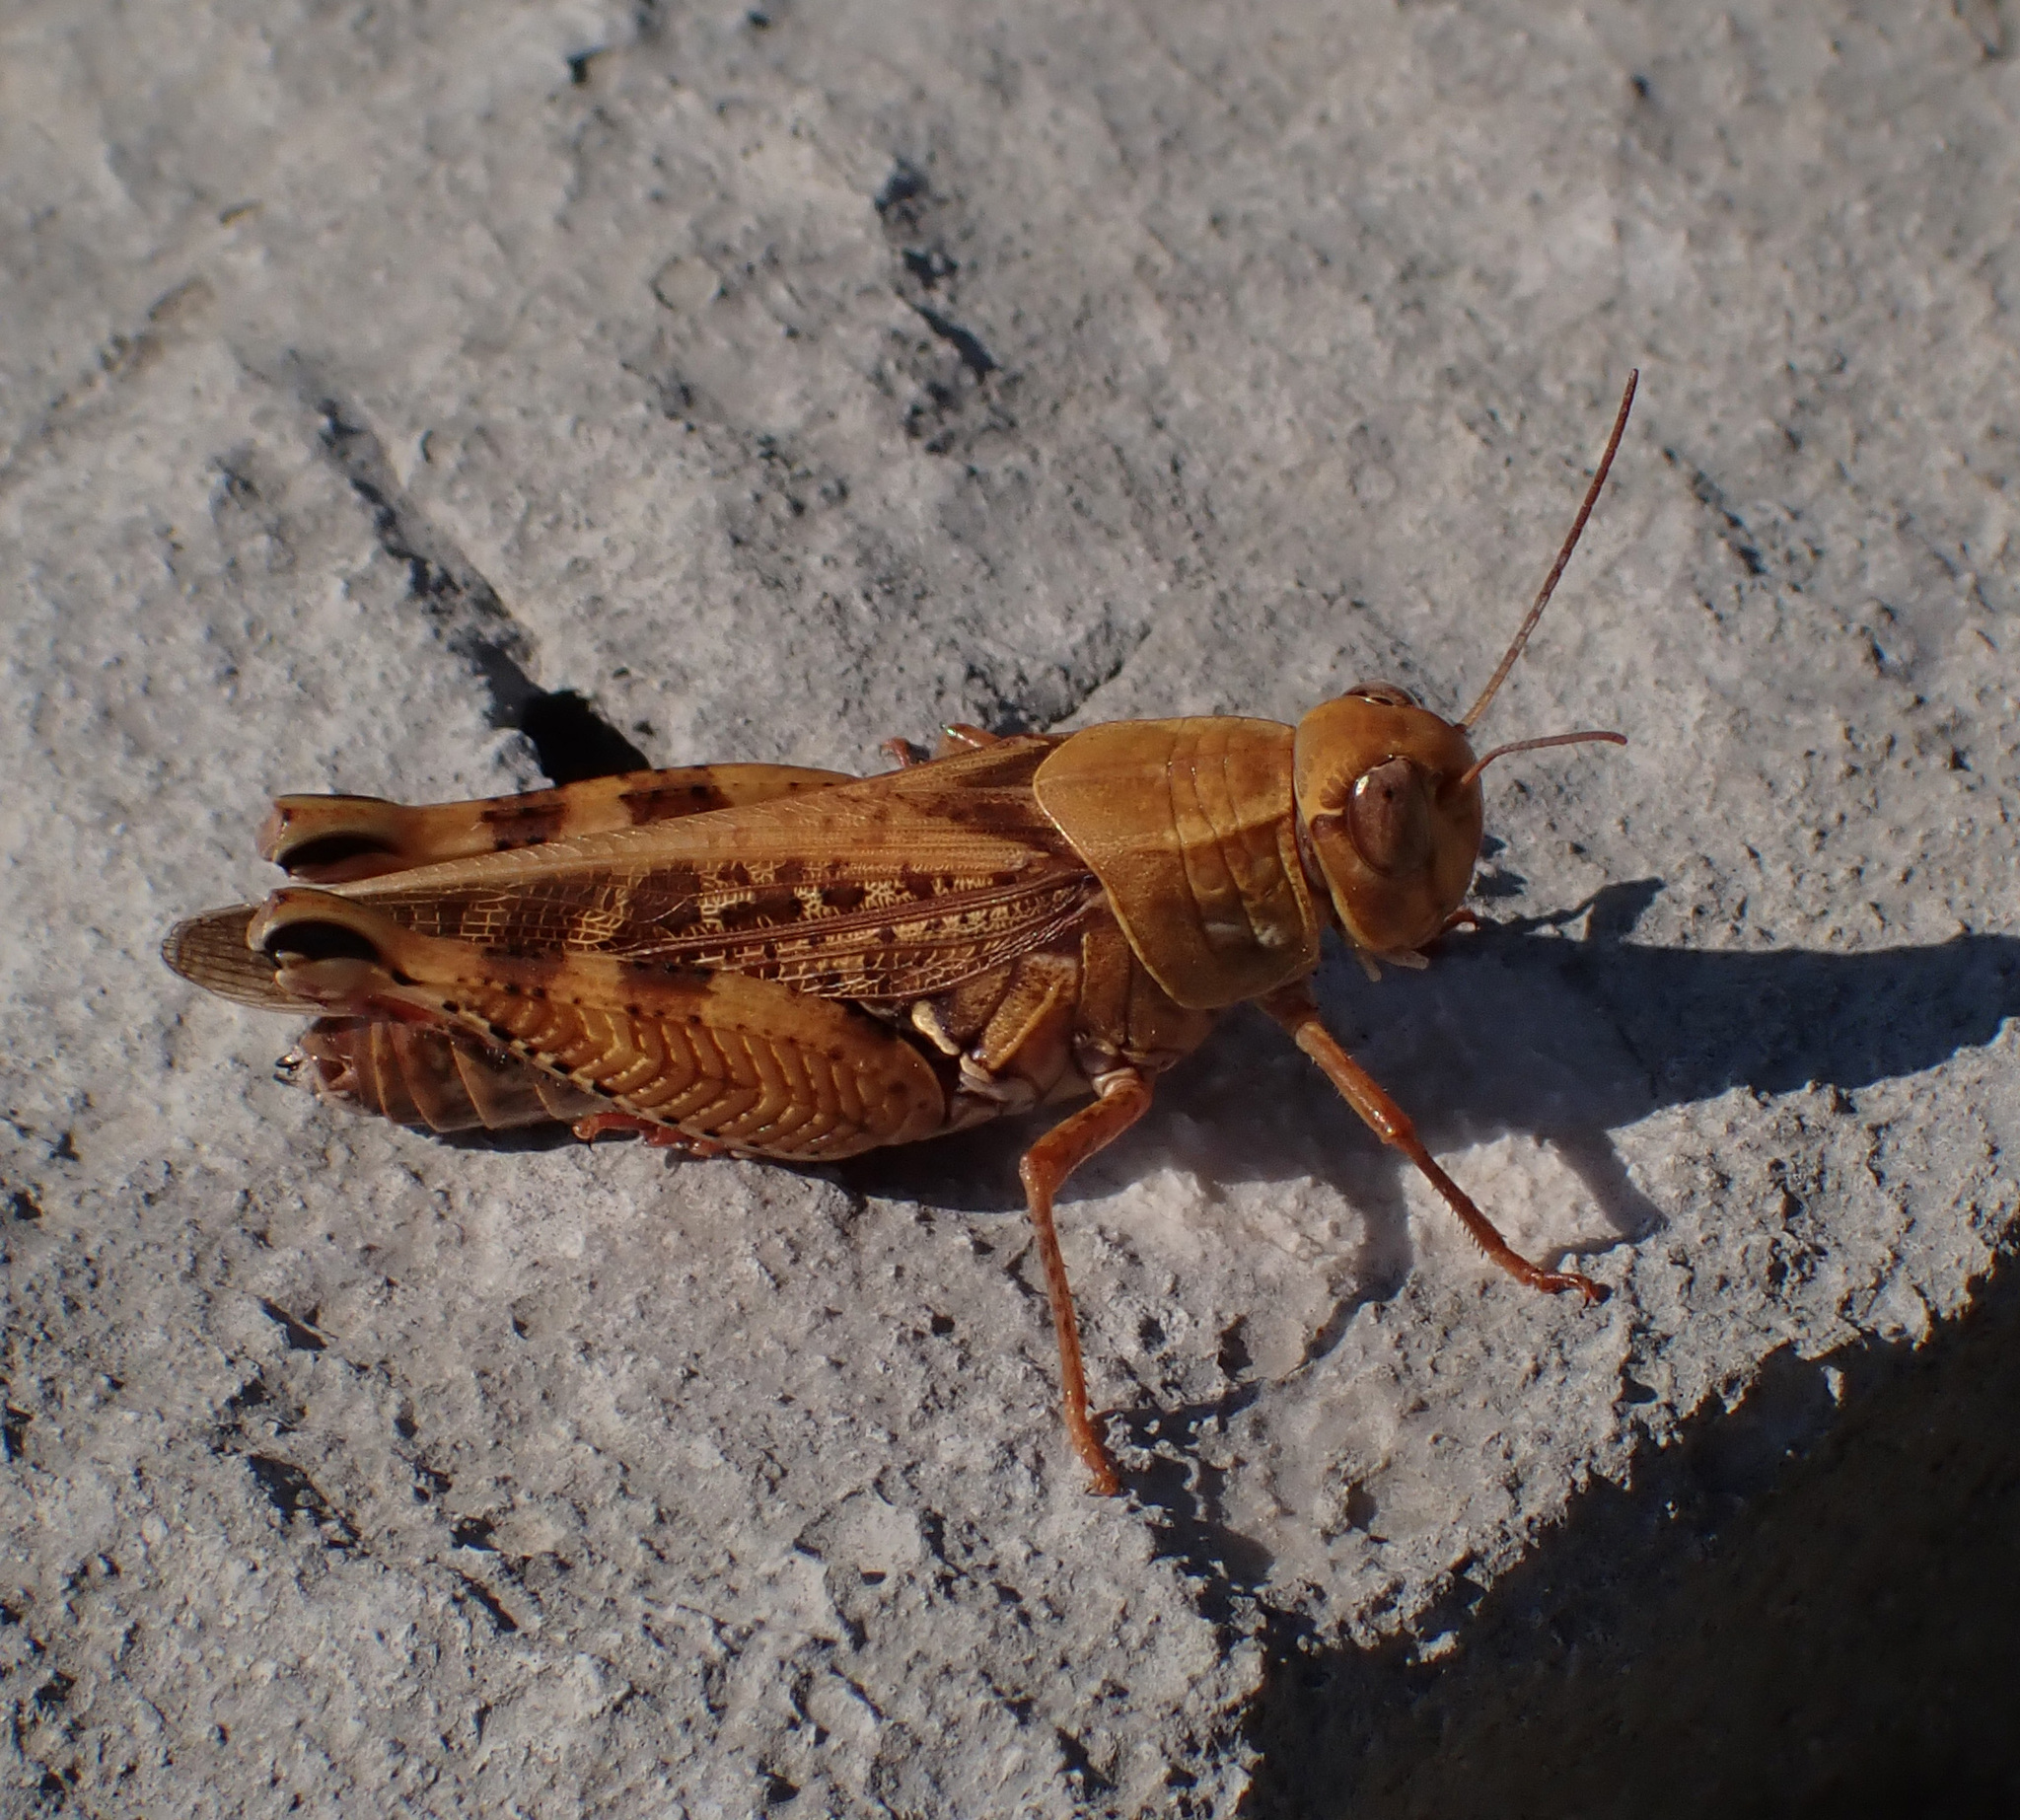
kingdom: Animalia
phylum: Arthropoda
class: Insecta
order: Orthoptera
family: Acrididae
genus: Calliptamus
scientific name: Calliptamus italicus
